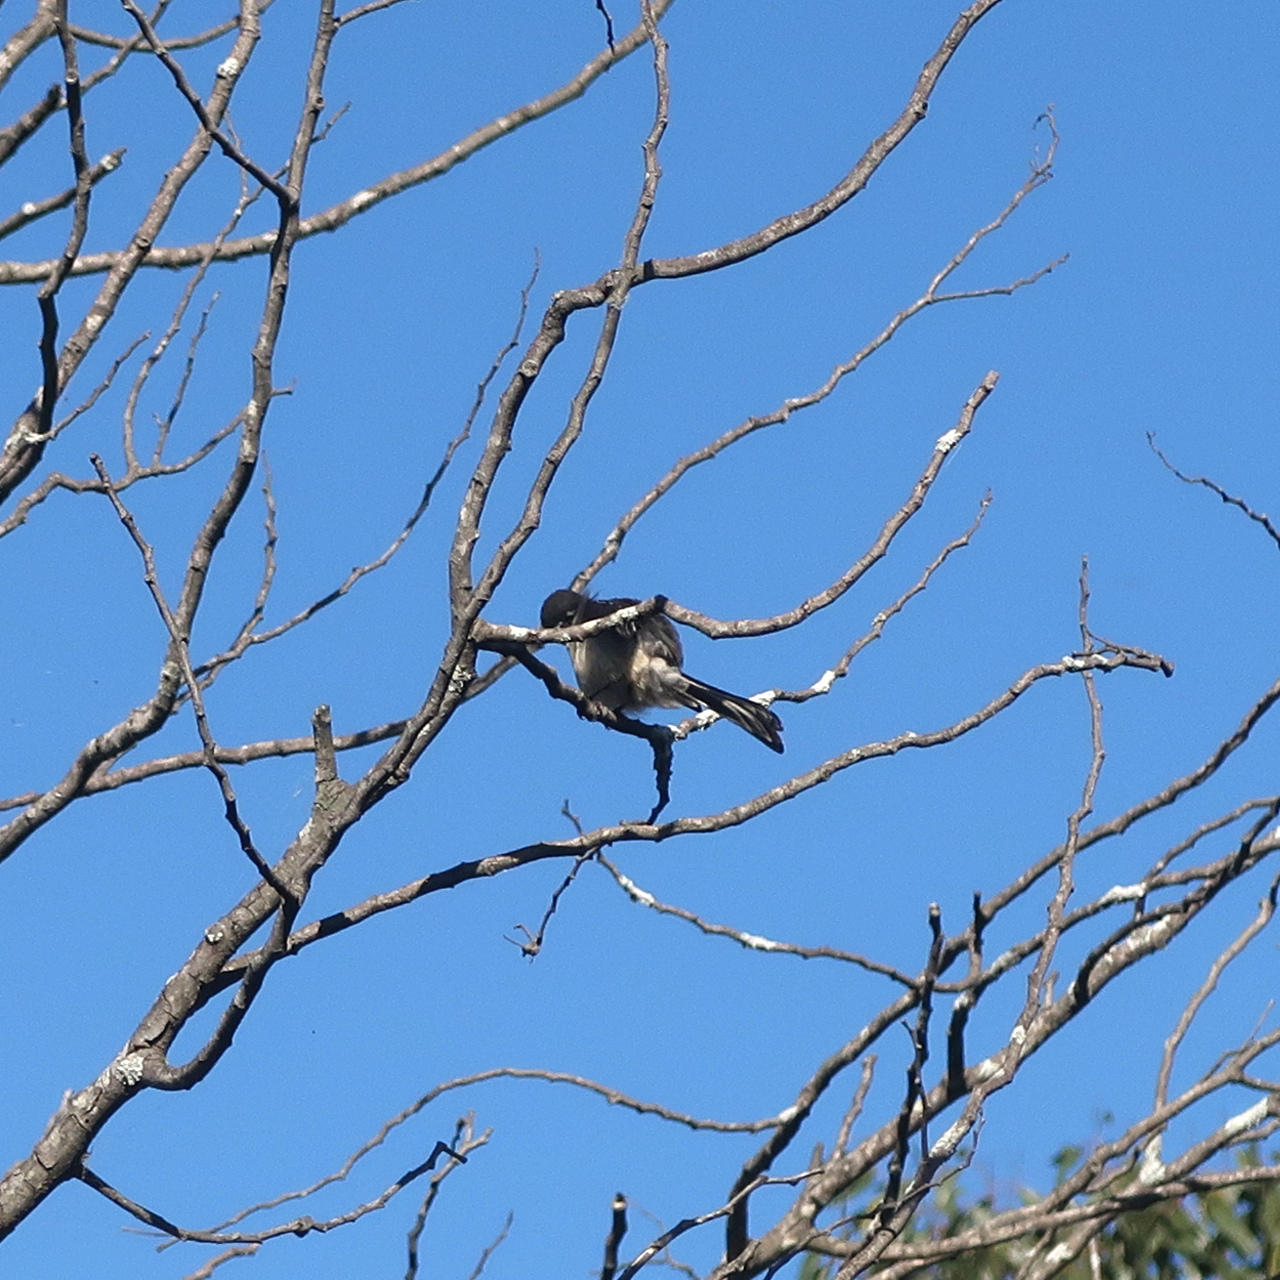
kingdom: Animalia
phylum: Chordata
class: Aves
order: Passeriformes
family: Rhipiduridae
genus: Rhipidura
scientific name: Rhipidura albiscapa
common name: Grey fantail
